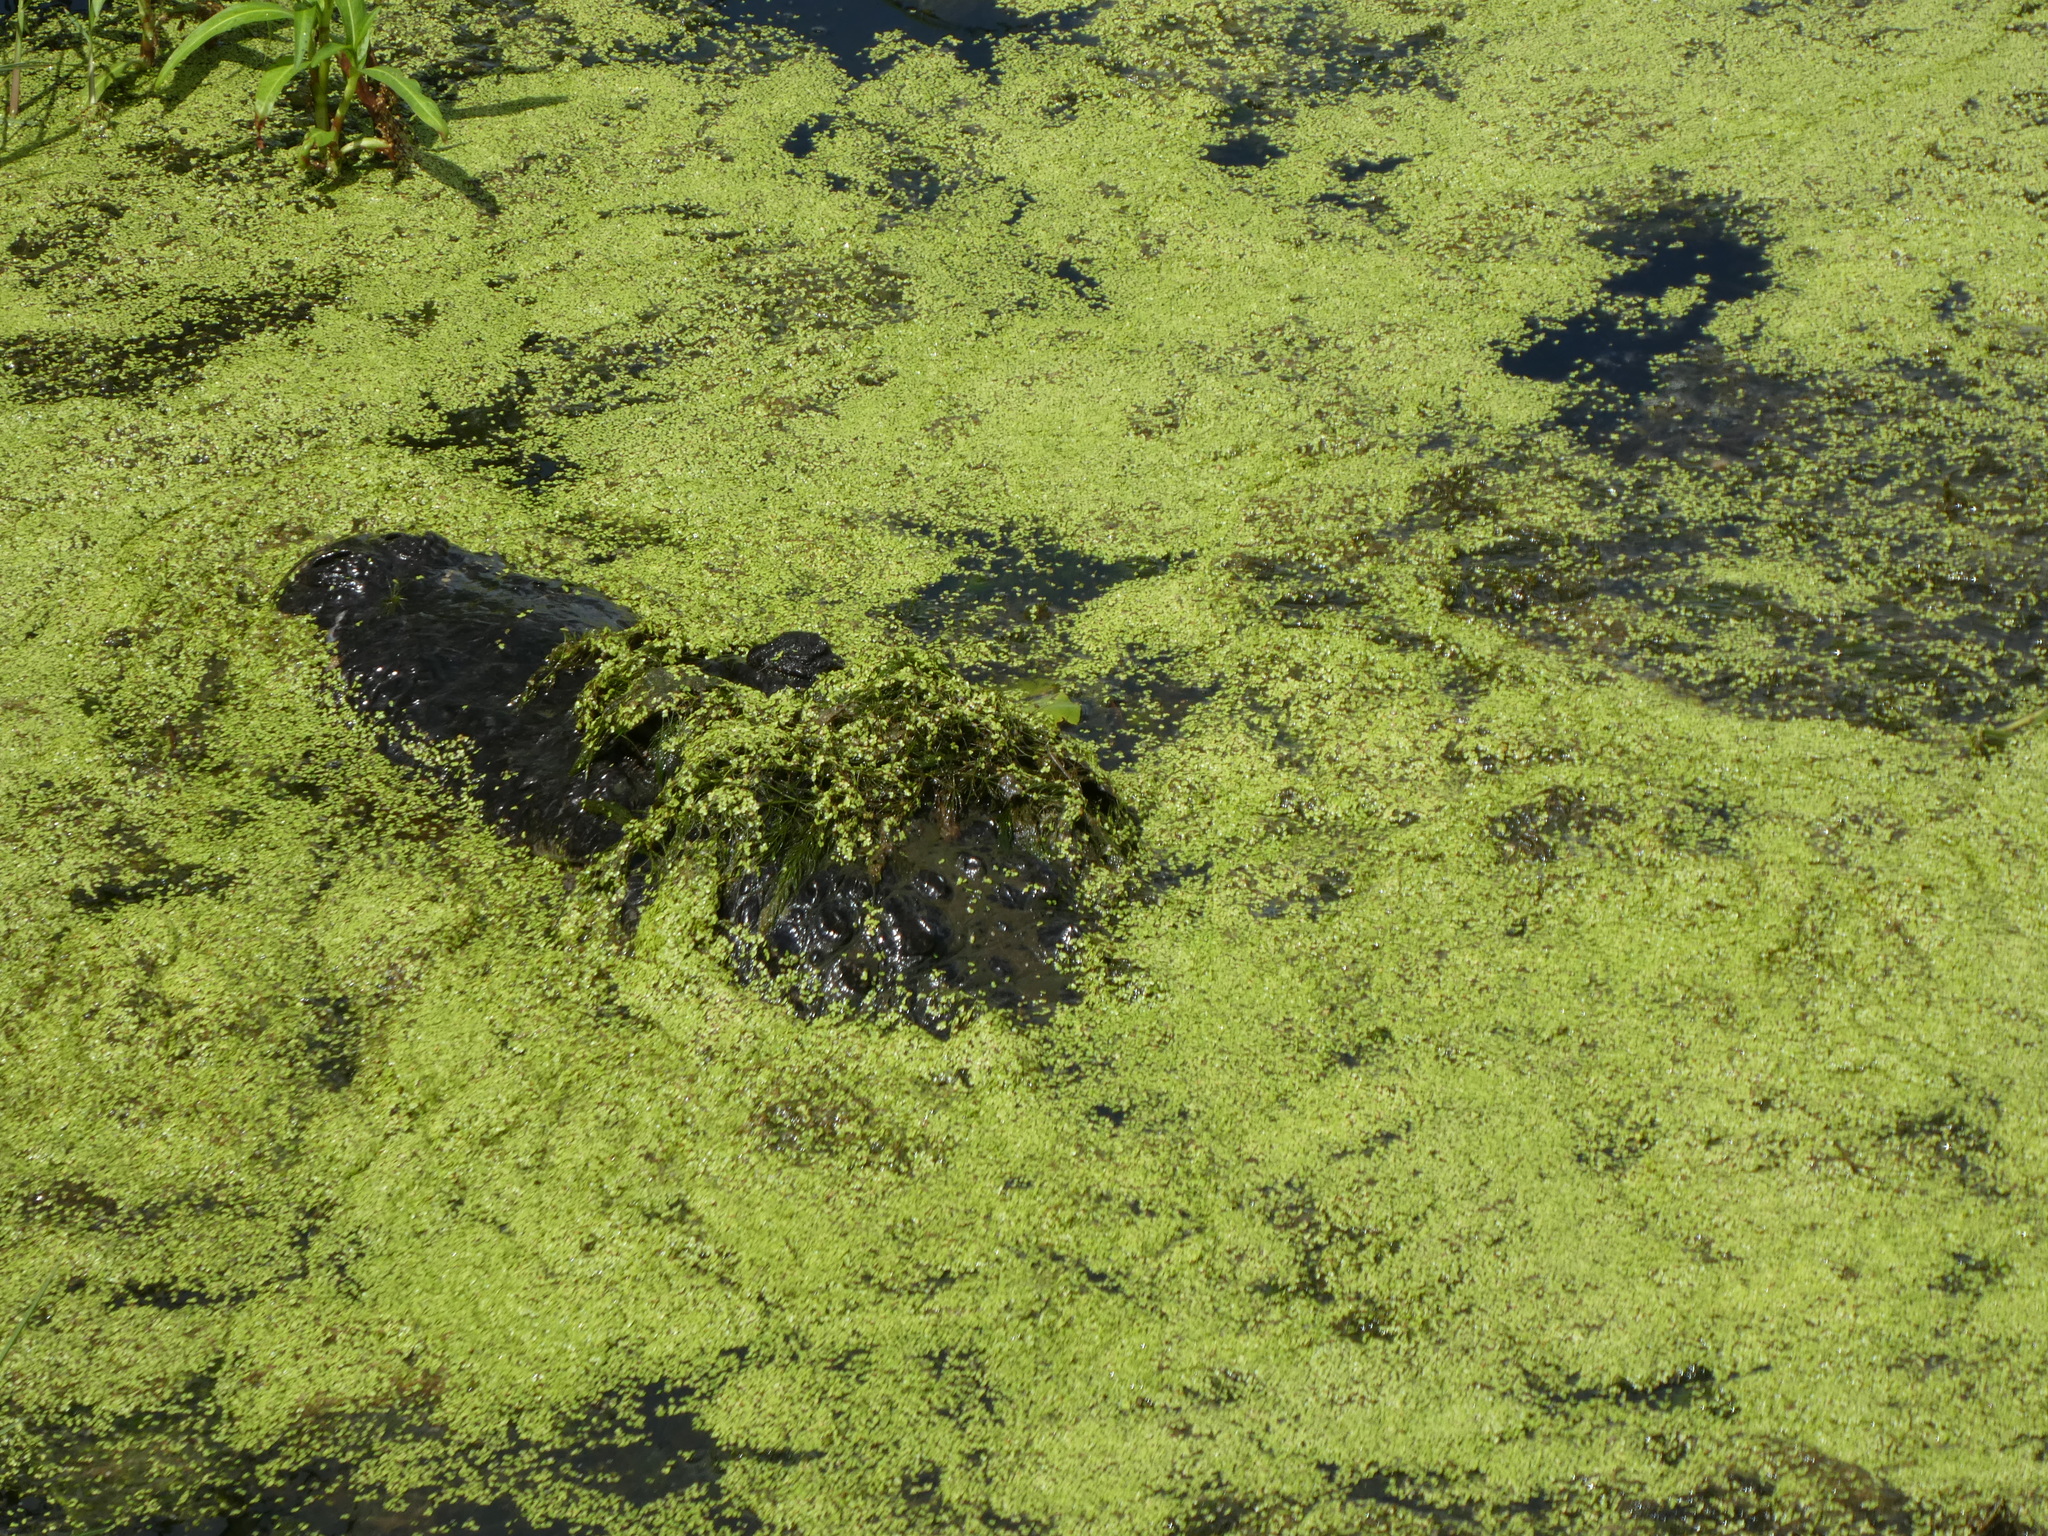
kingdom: Animalia
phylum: Chordata
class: Crocodylia
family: Alligatoridae
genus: Alligator
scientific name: Alligator mississippiensis
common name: American alligator
